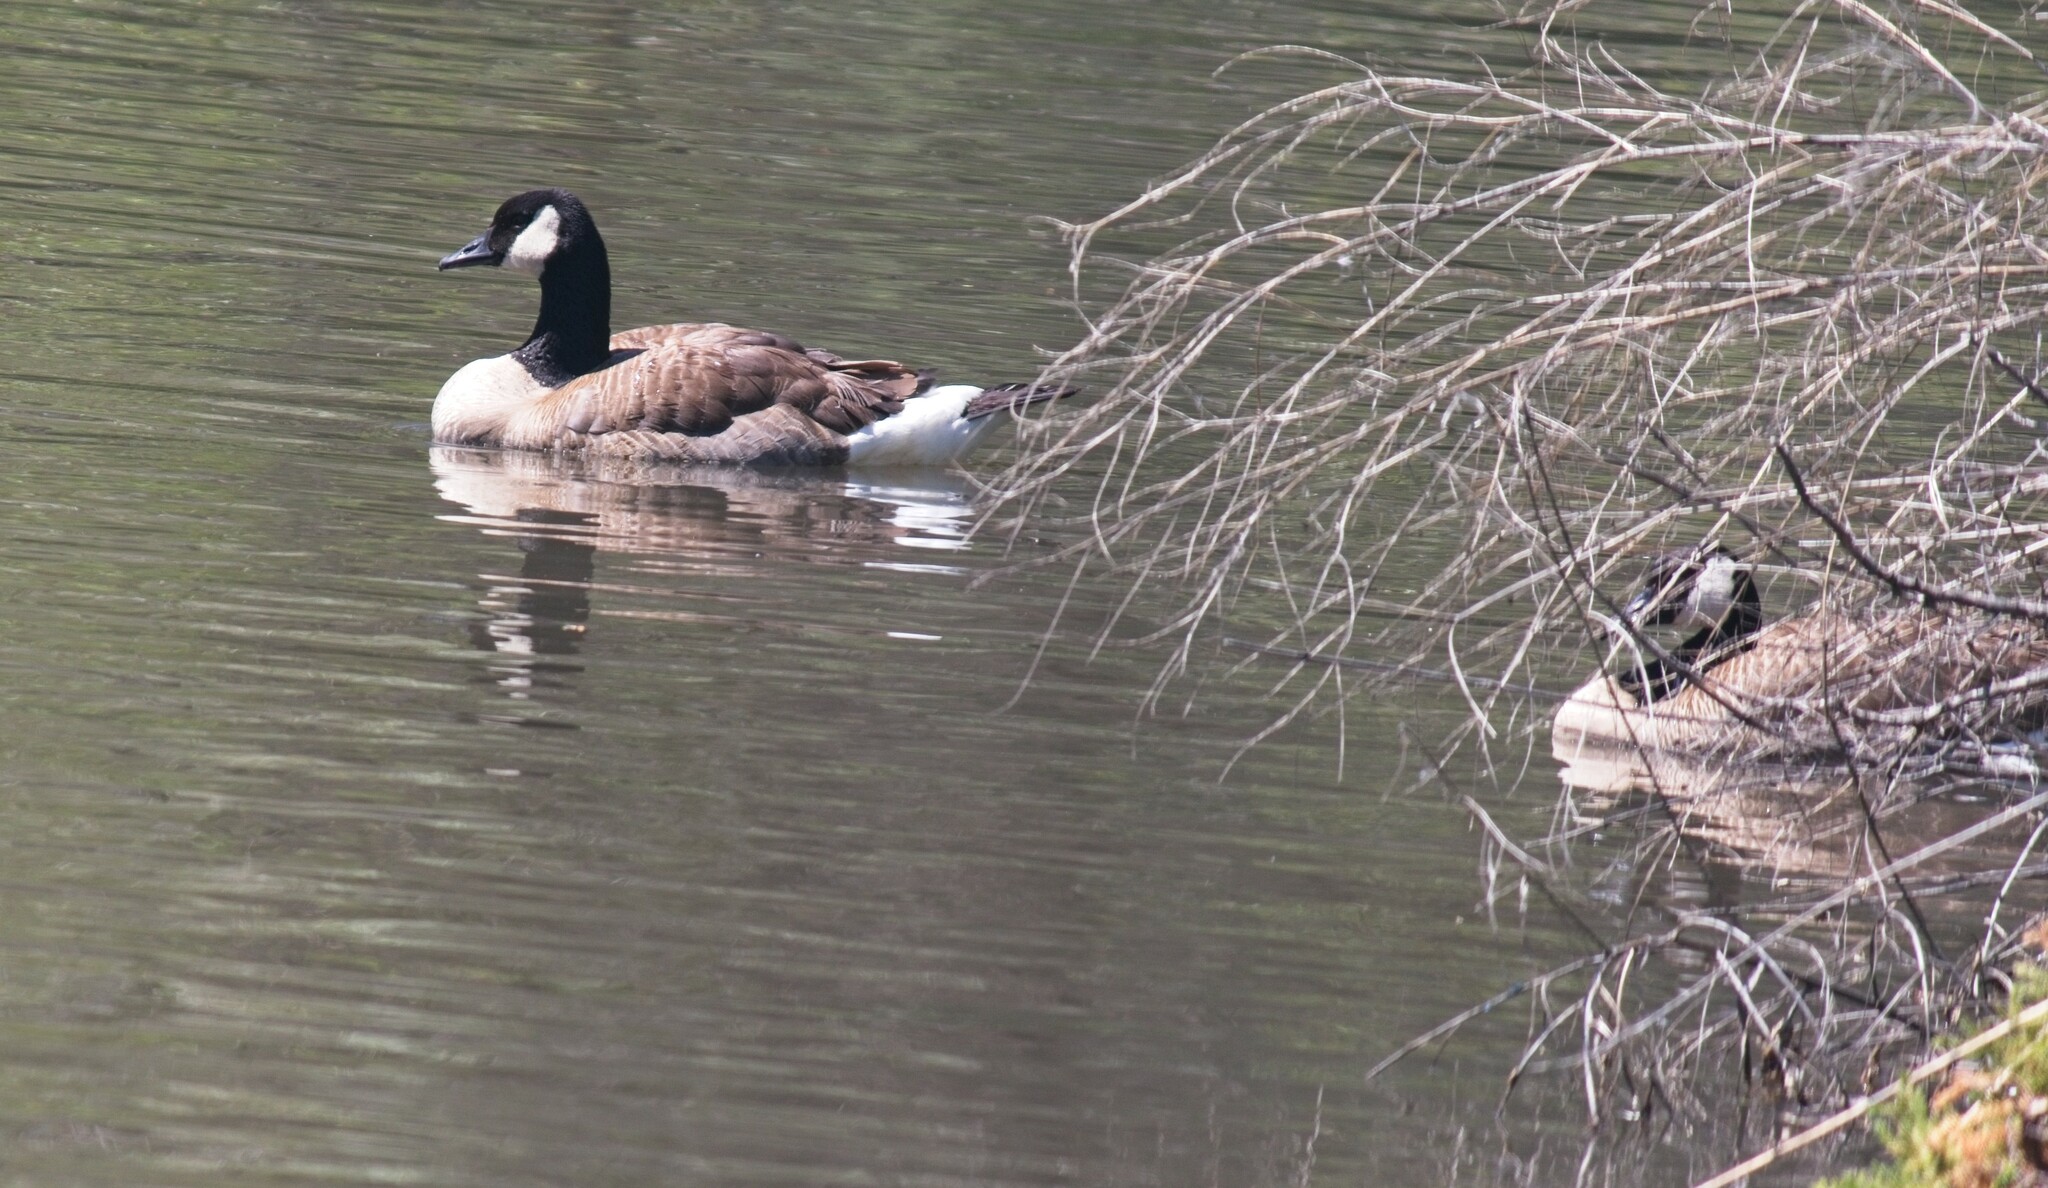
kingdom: Animalia
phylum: Chordata
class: Aves
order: Anseriformes
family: Anatidae
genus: Branta
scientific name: Branta canadensis
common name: Canada goose
